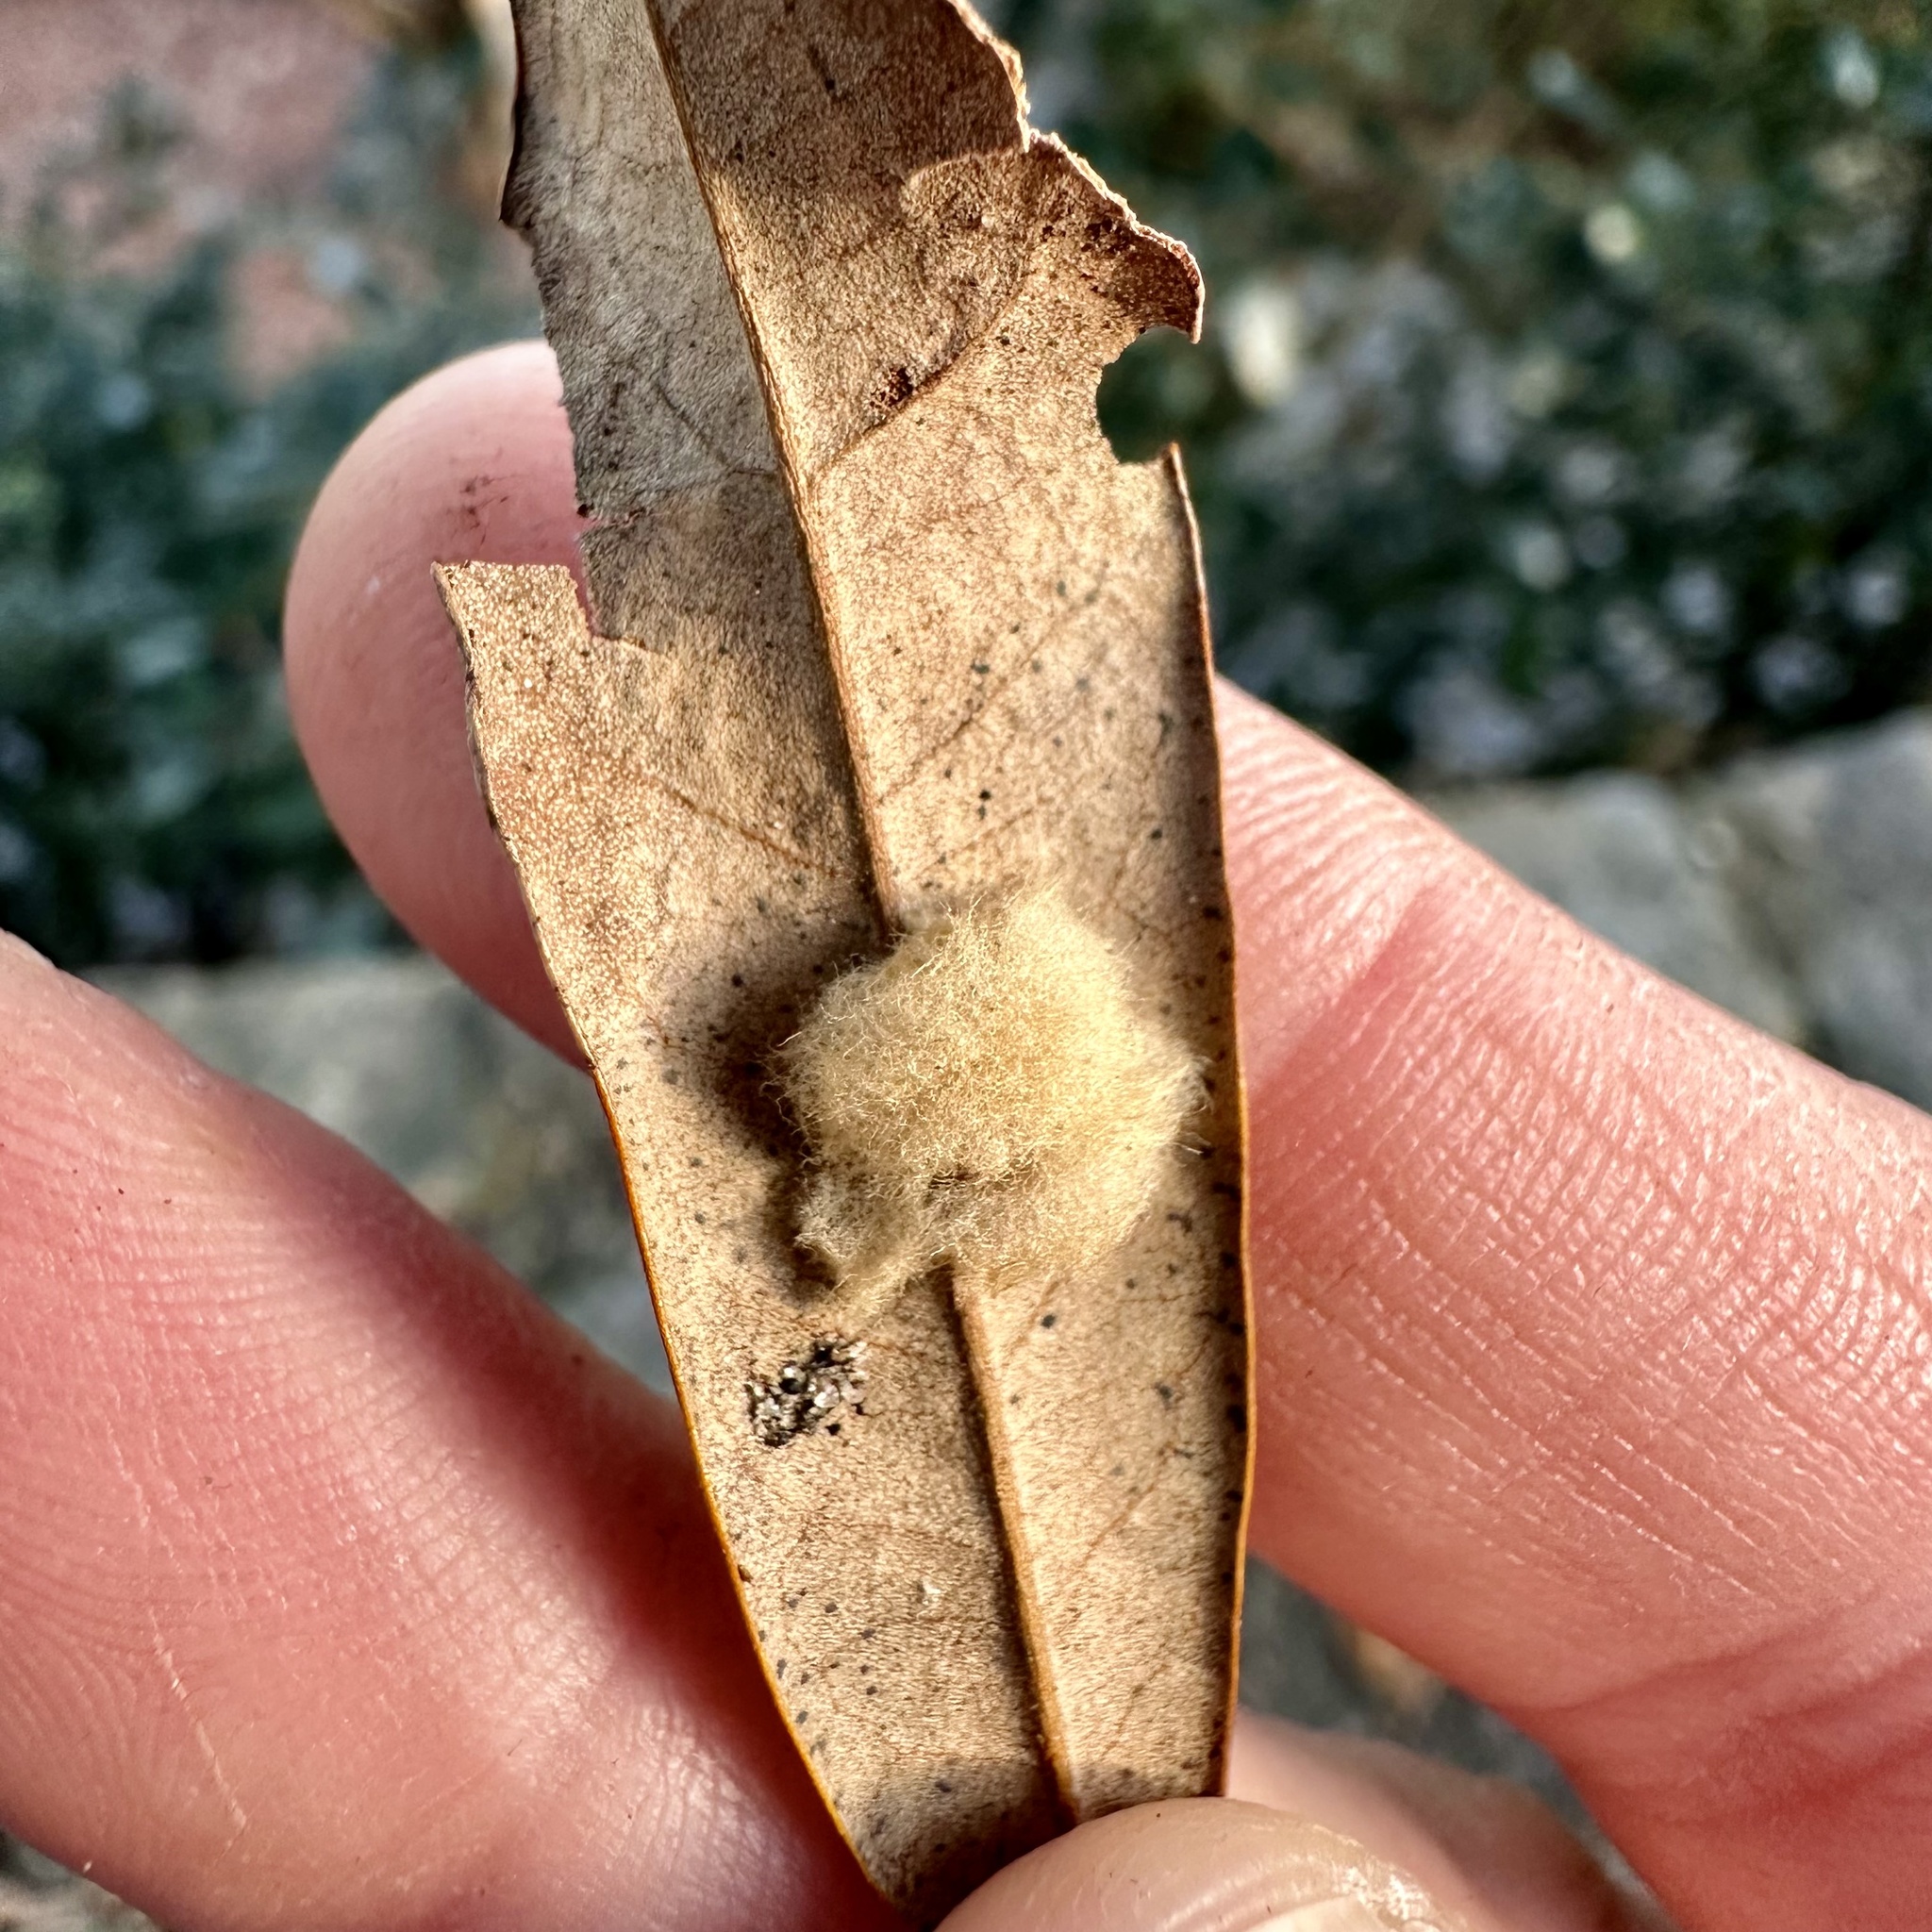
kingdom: Animalia
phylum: Arthropoda
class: Insecta
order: Hymenoptera
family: Cynipidae
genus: Andricus
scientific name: Andricus Druon quercuslanigerum
